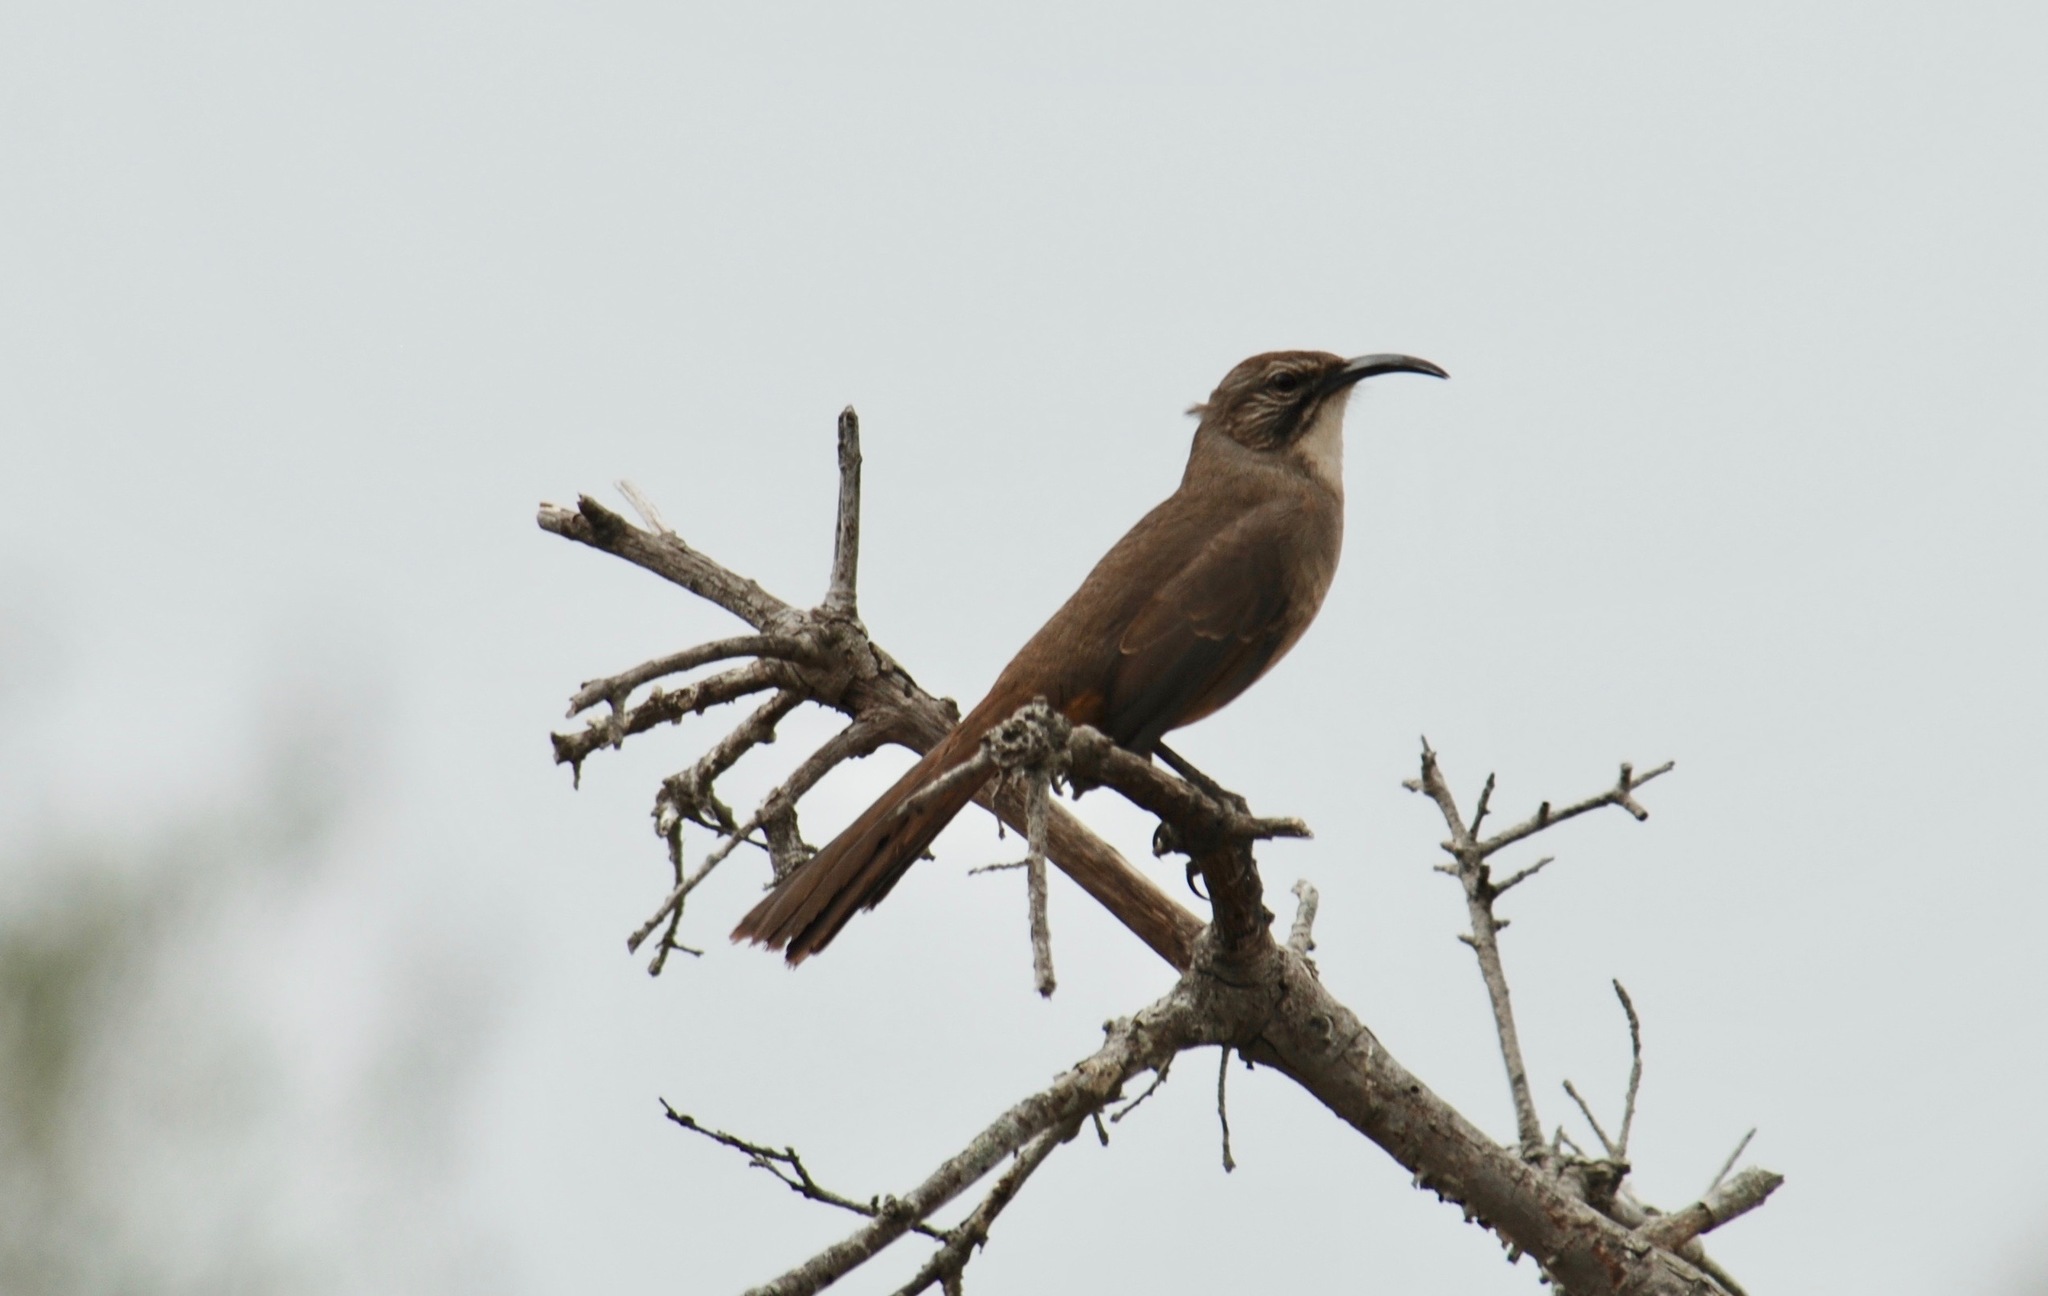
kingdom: Animalia
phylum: Chordata
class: Aves
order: Passeriformes
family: Mimidae
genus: Toxostoma
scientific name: Toxostoma redivivum
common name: California thrasher
